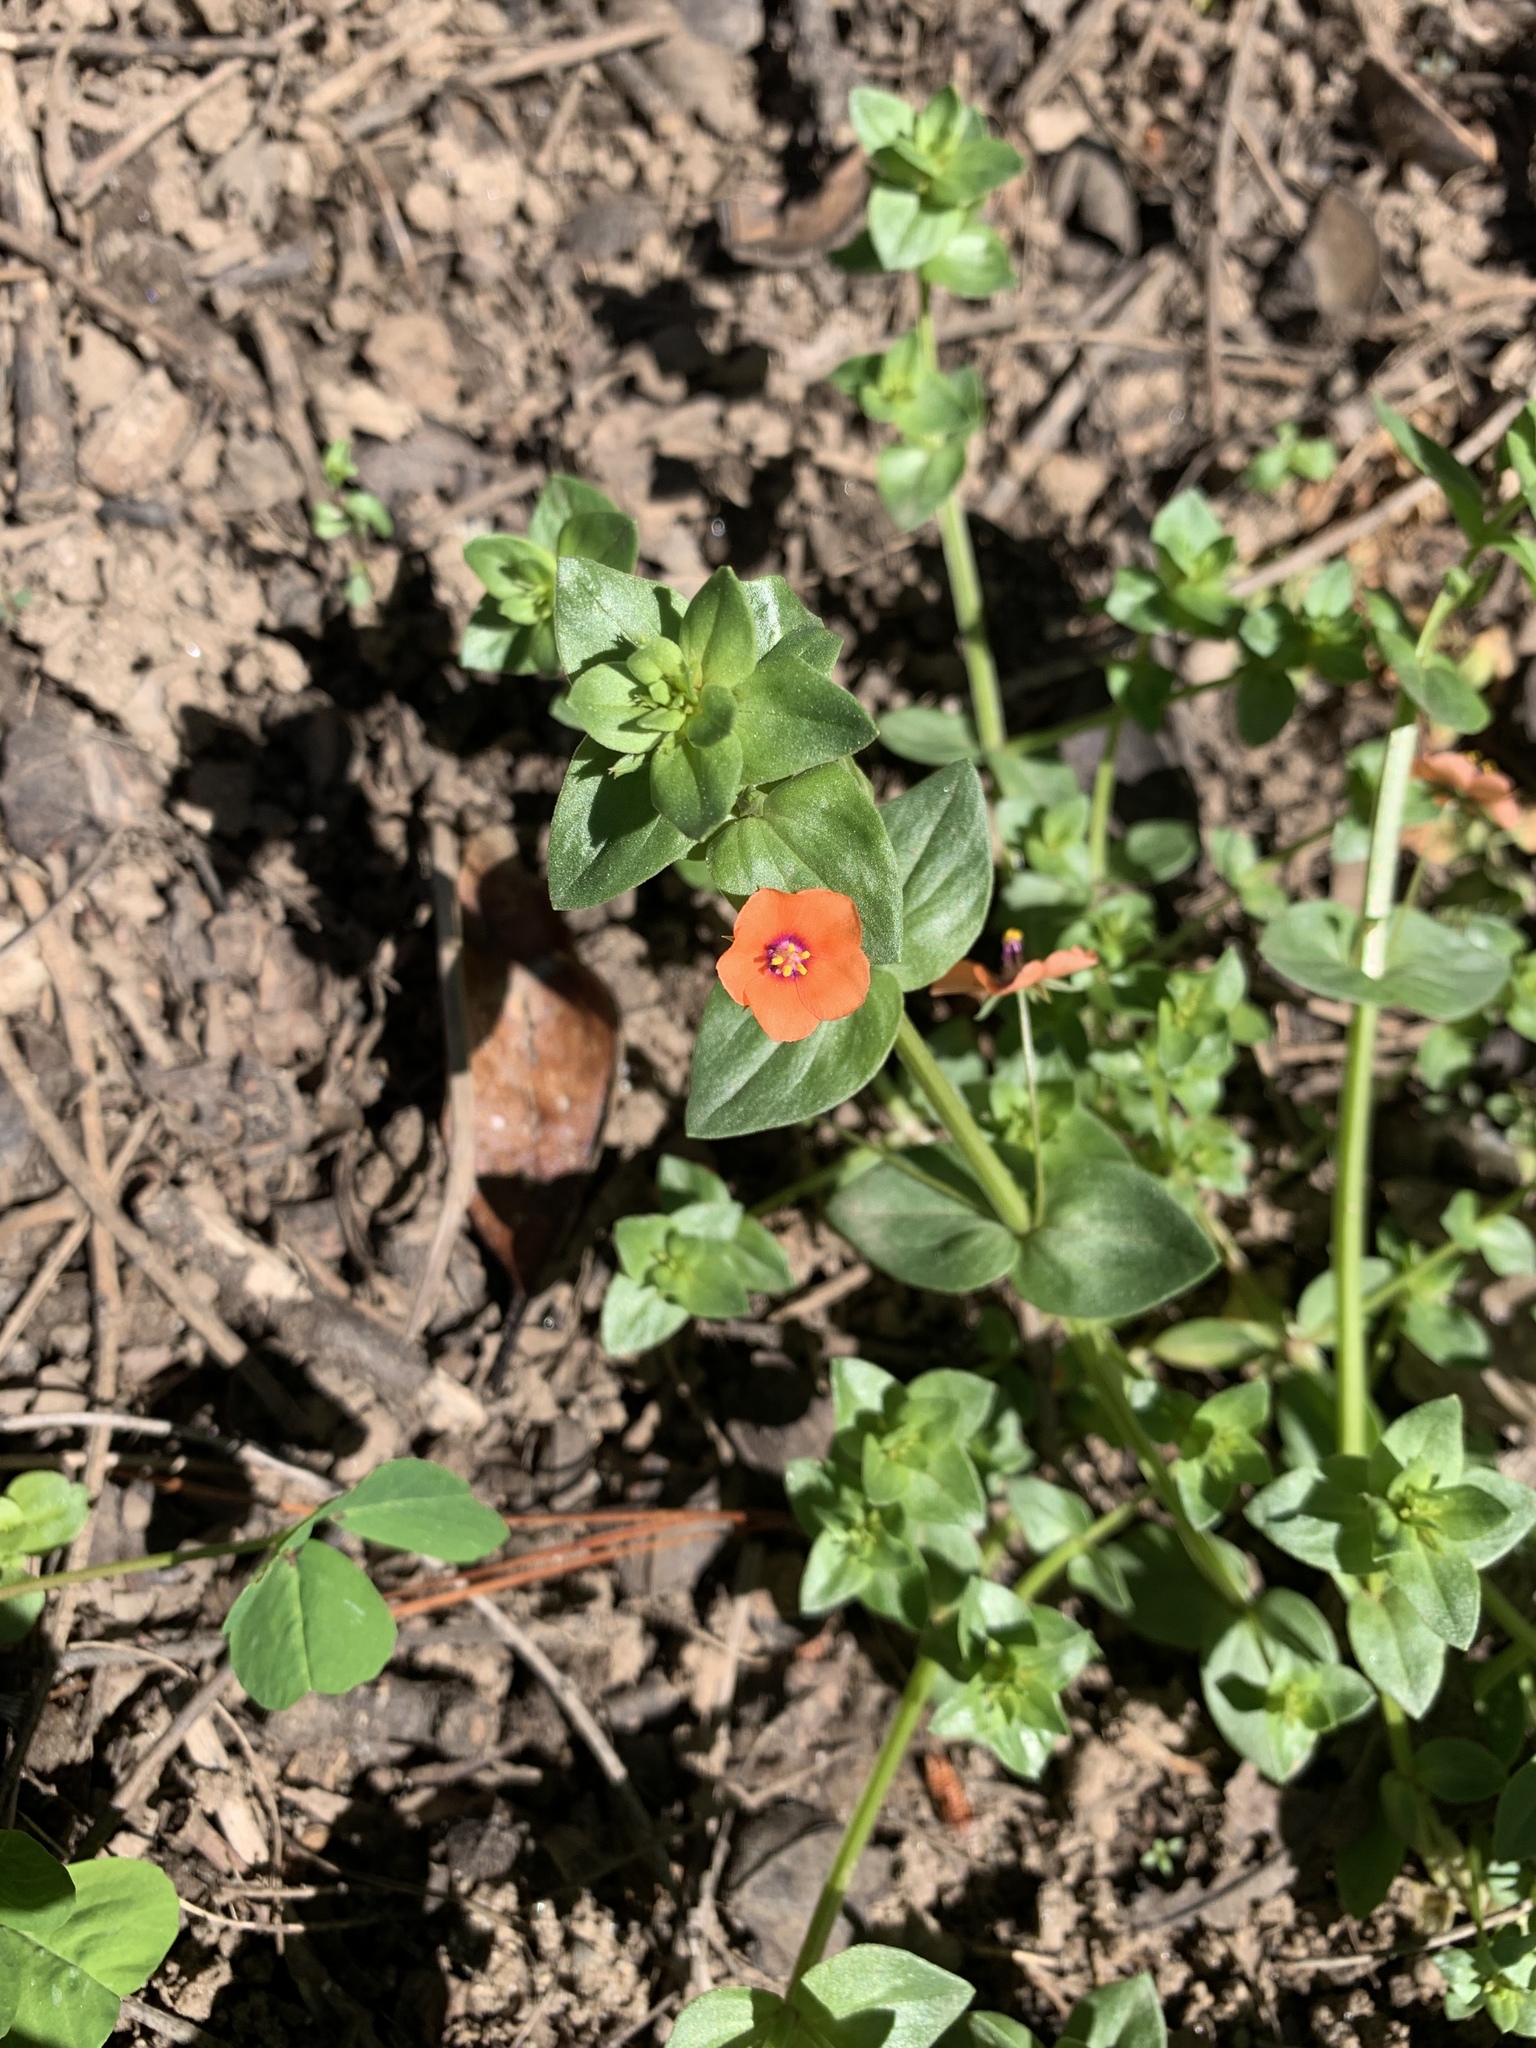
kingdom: Plantae
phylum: Tracheophyta
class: Magnoliopsida
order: Ericales
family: Primulaceae
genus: Lysimachia
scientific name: Lysimachia arvensis
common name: Scarlet pimpernel
